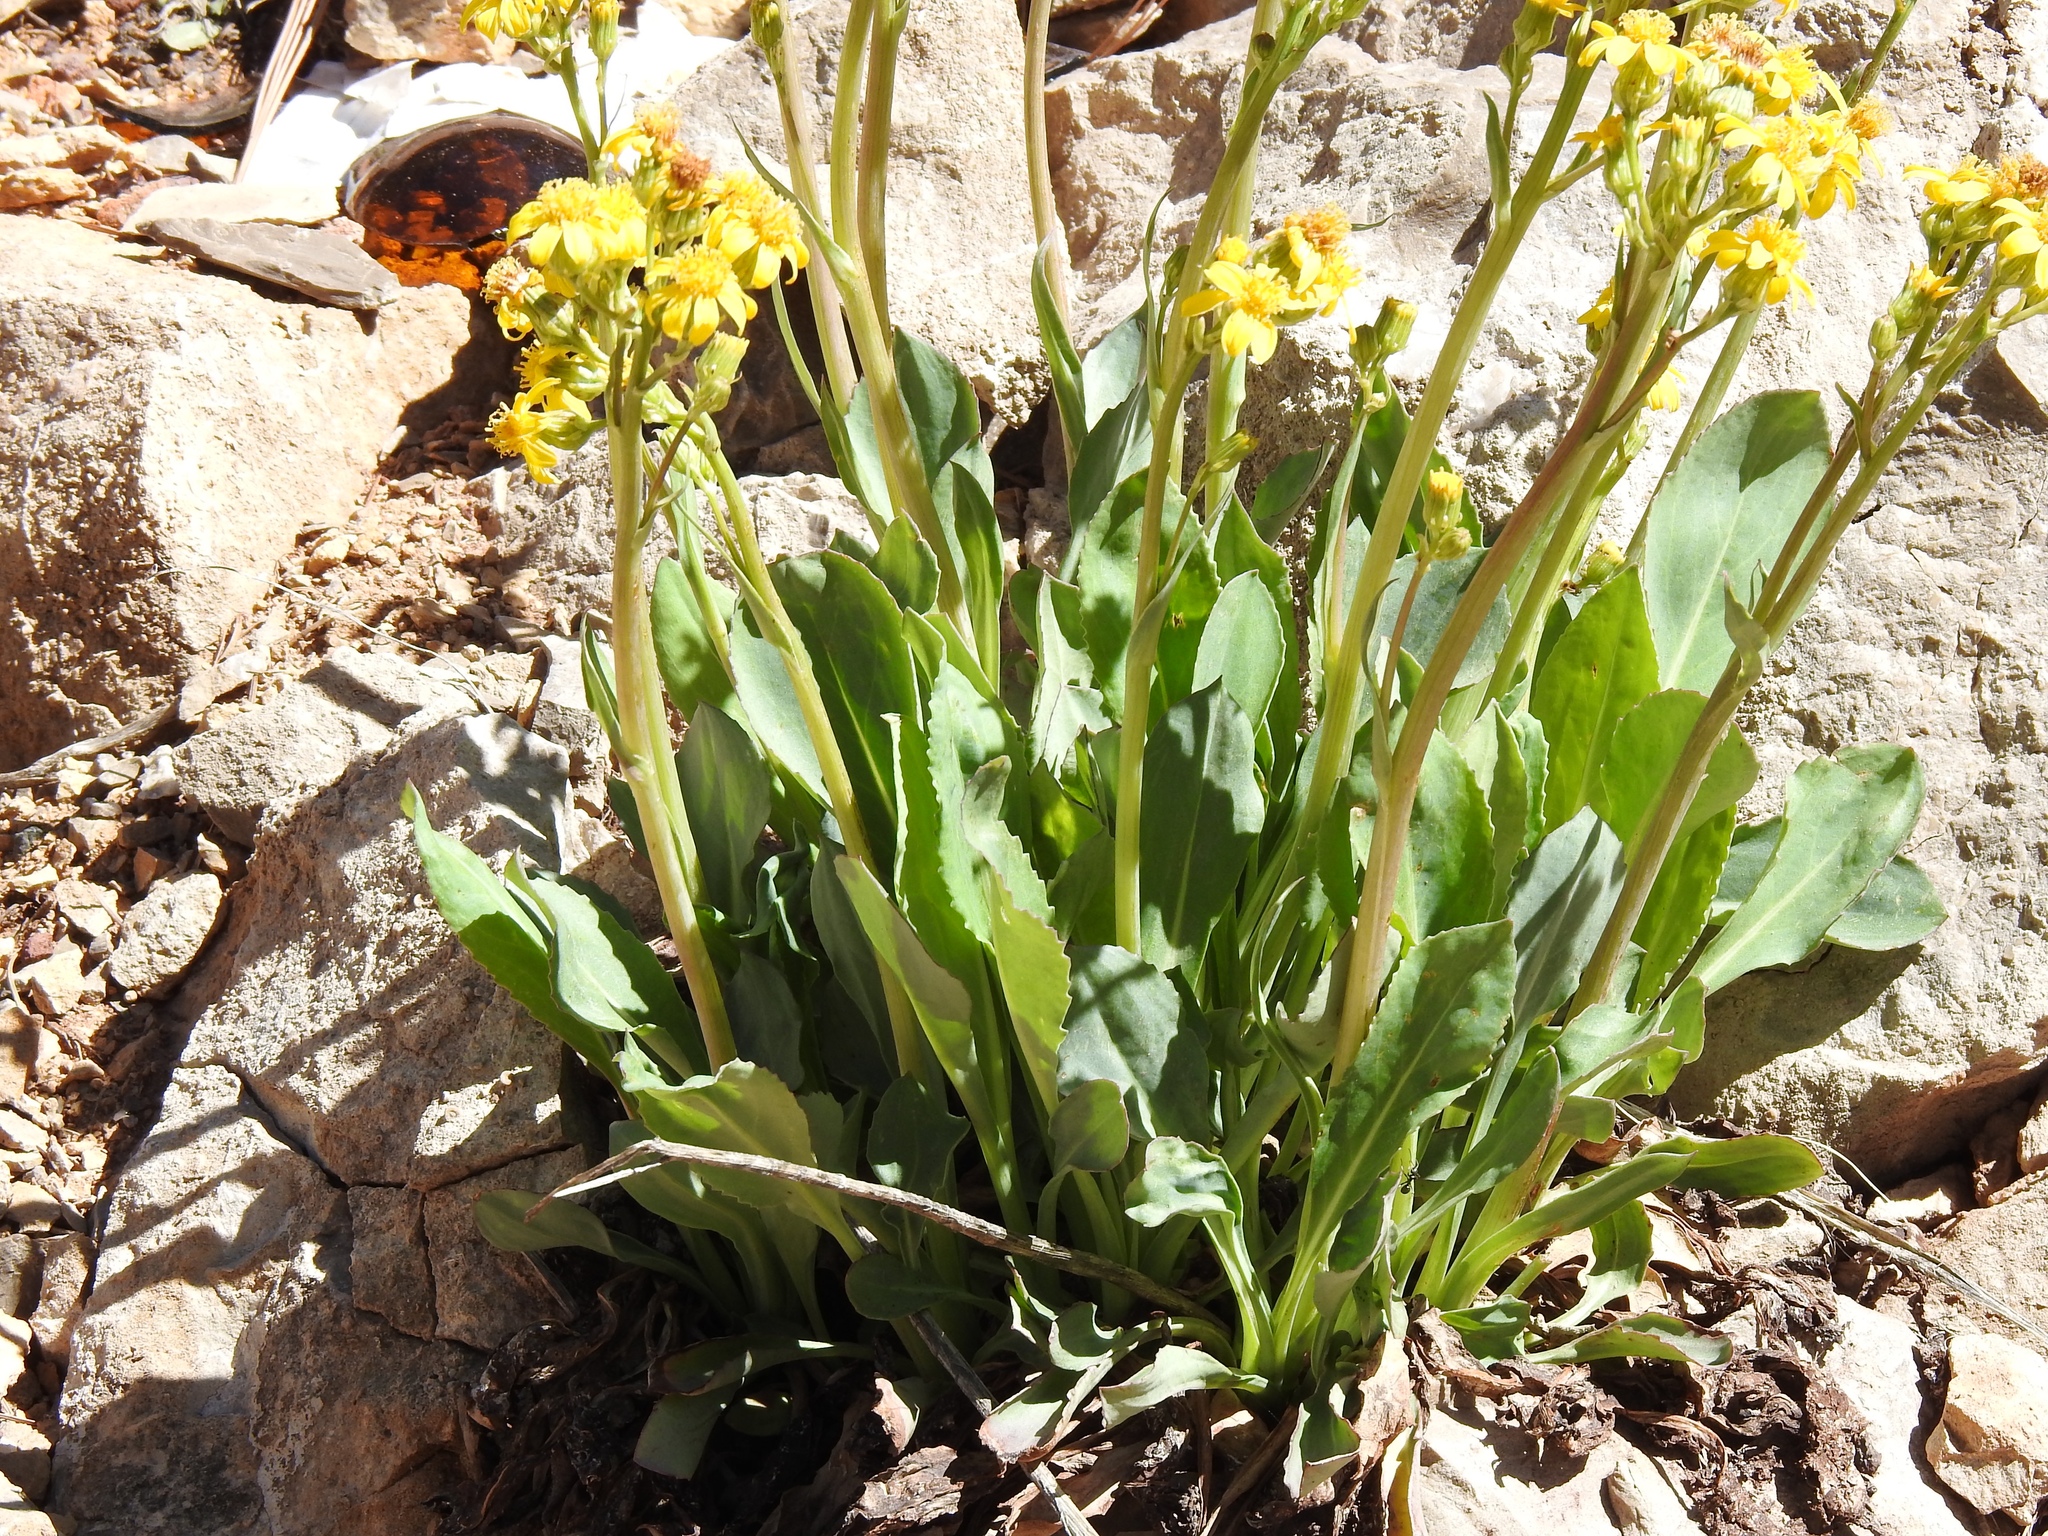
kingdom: Plantae
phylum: Tracheophyta
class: Magnoliopsida
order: Asterales
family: Asteraceae
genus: Senecio
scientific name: Senecio wootonii
